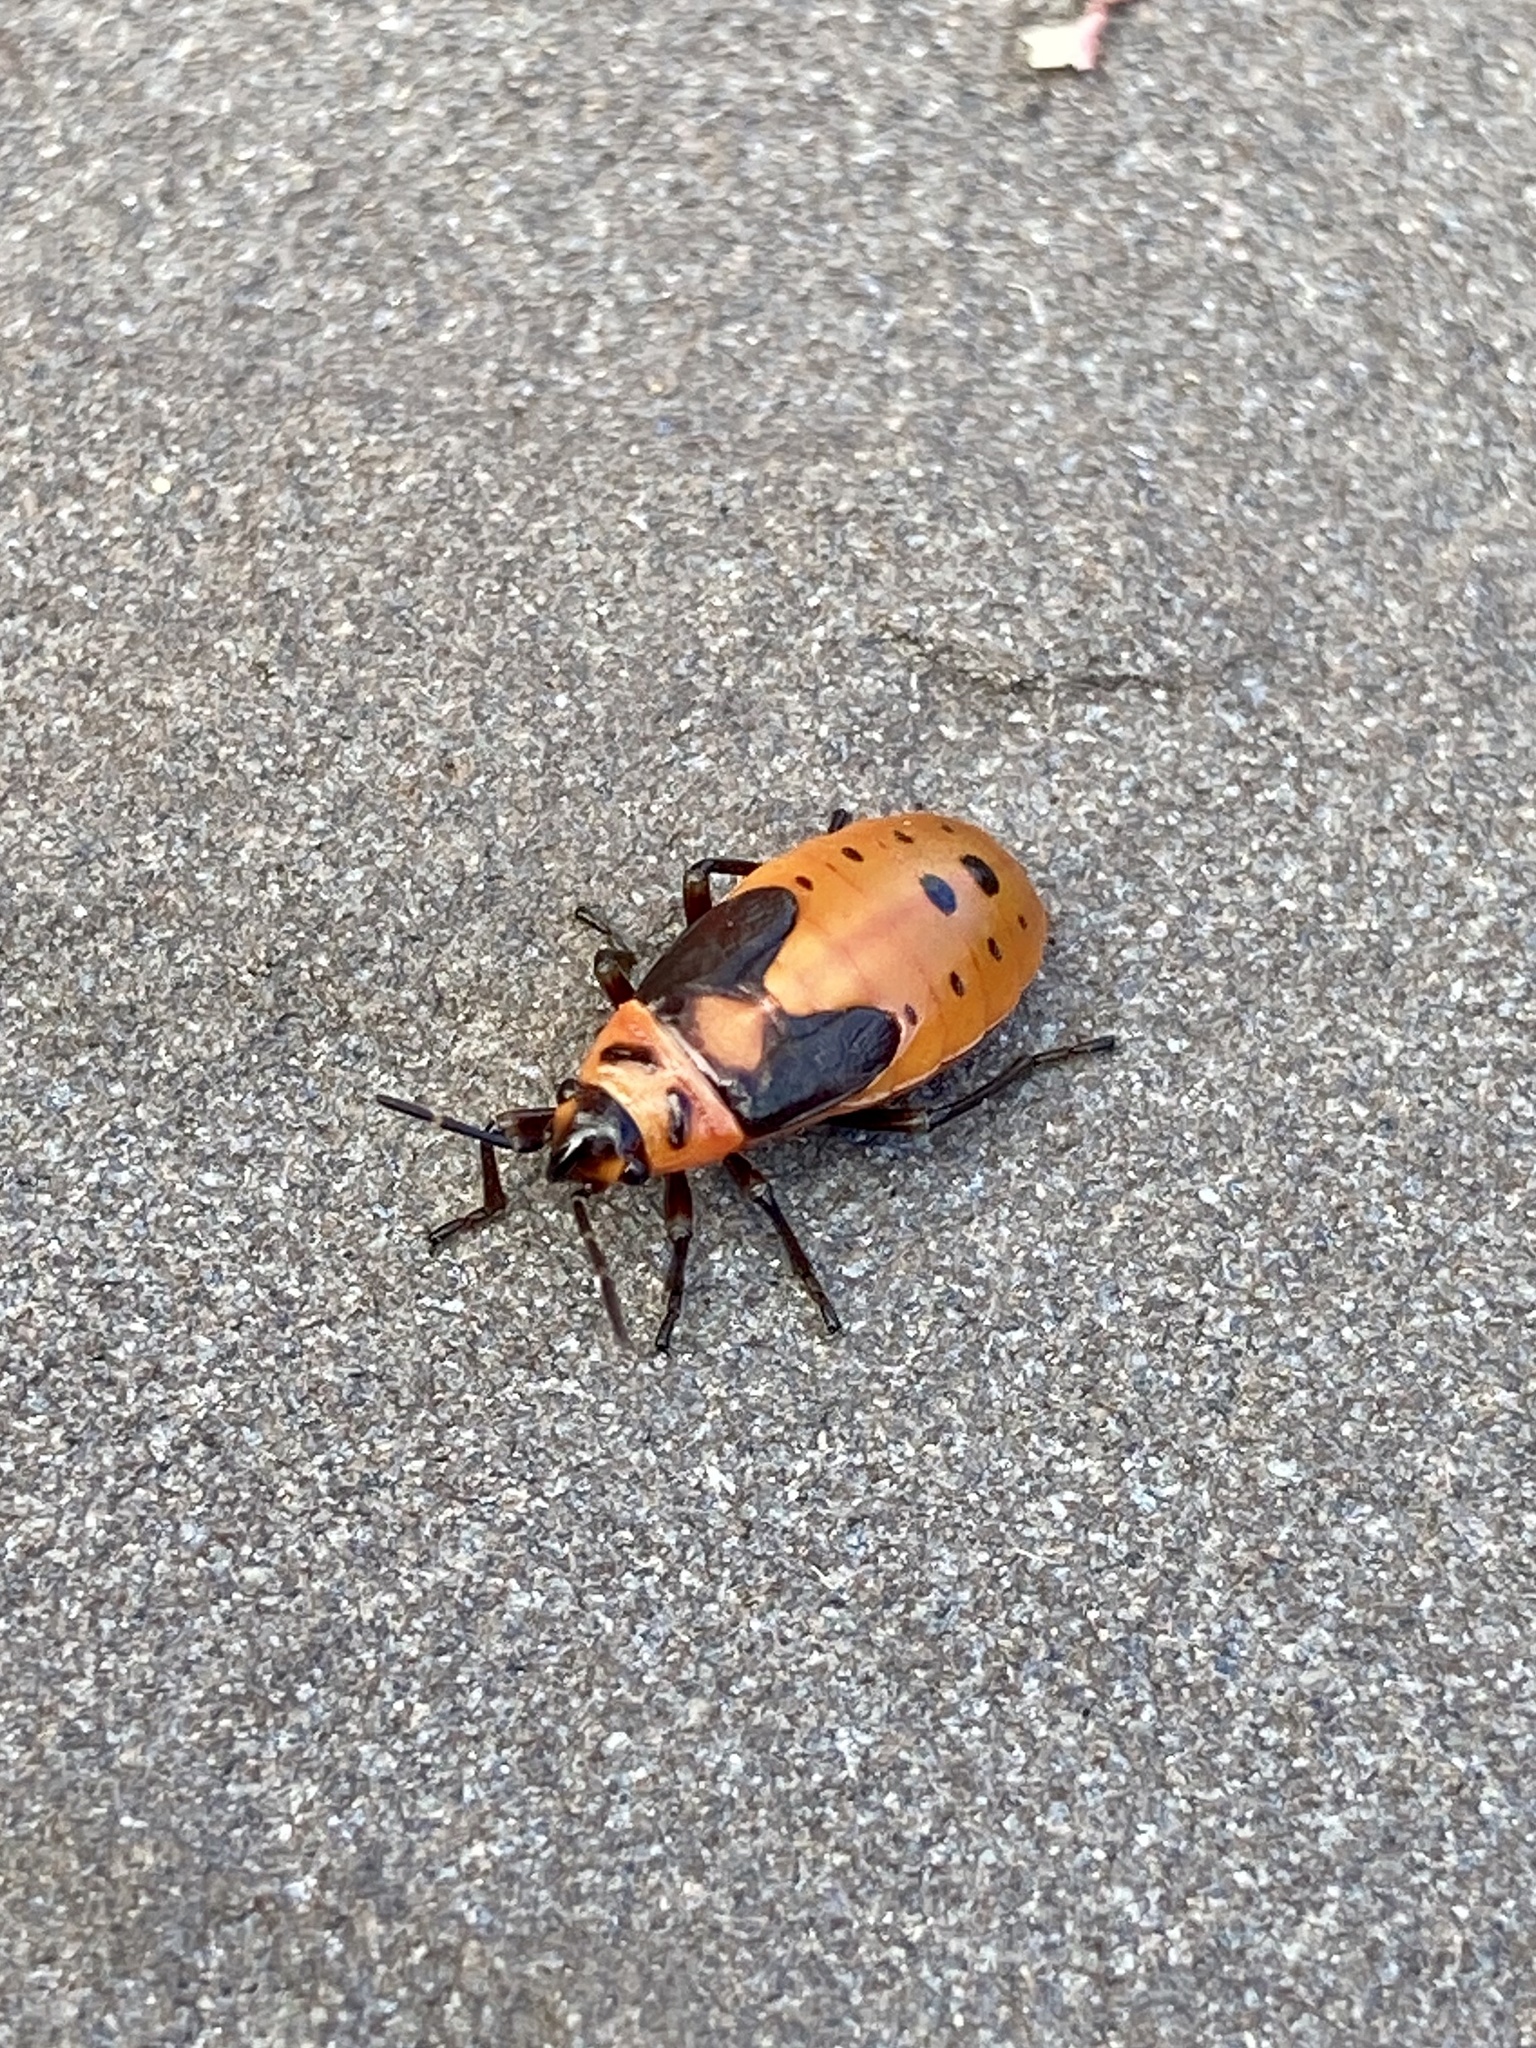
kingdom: Animalia
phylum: Arthropoda
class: Insecta
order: Hemiptera
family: Lygaeidae
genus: Lygaeus
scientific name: Lygaeus kalmii
